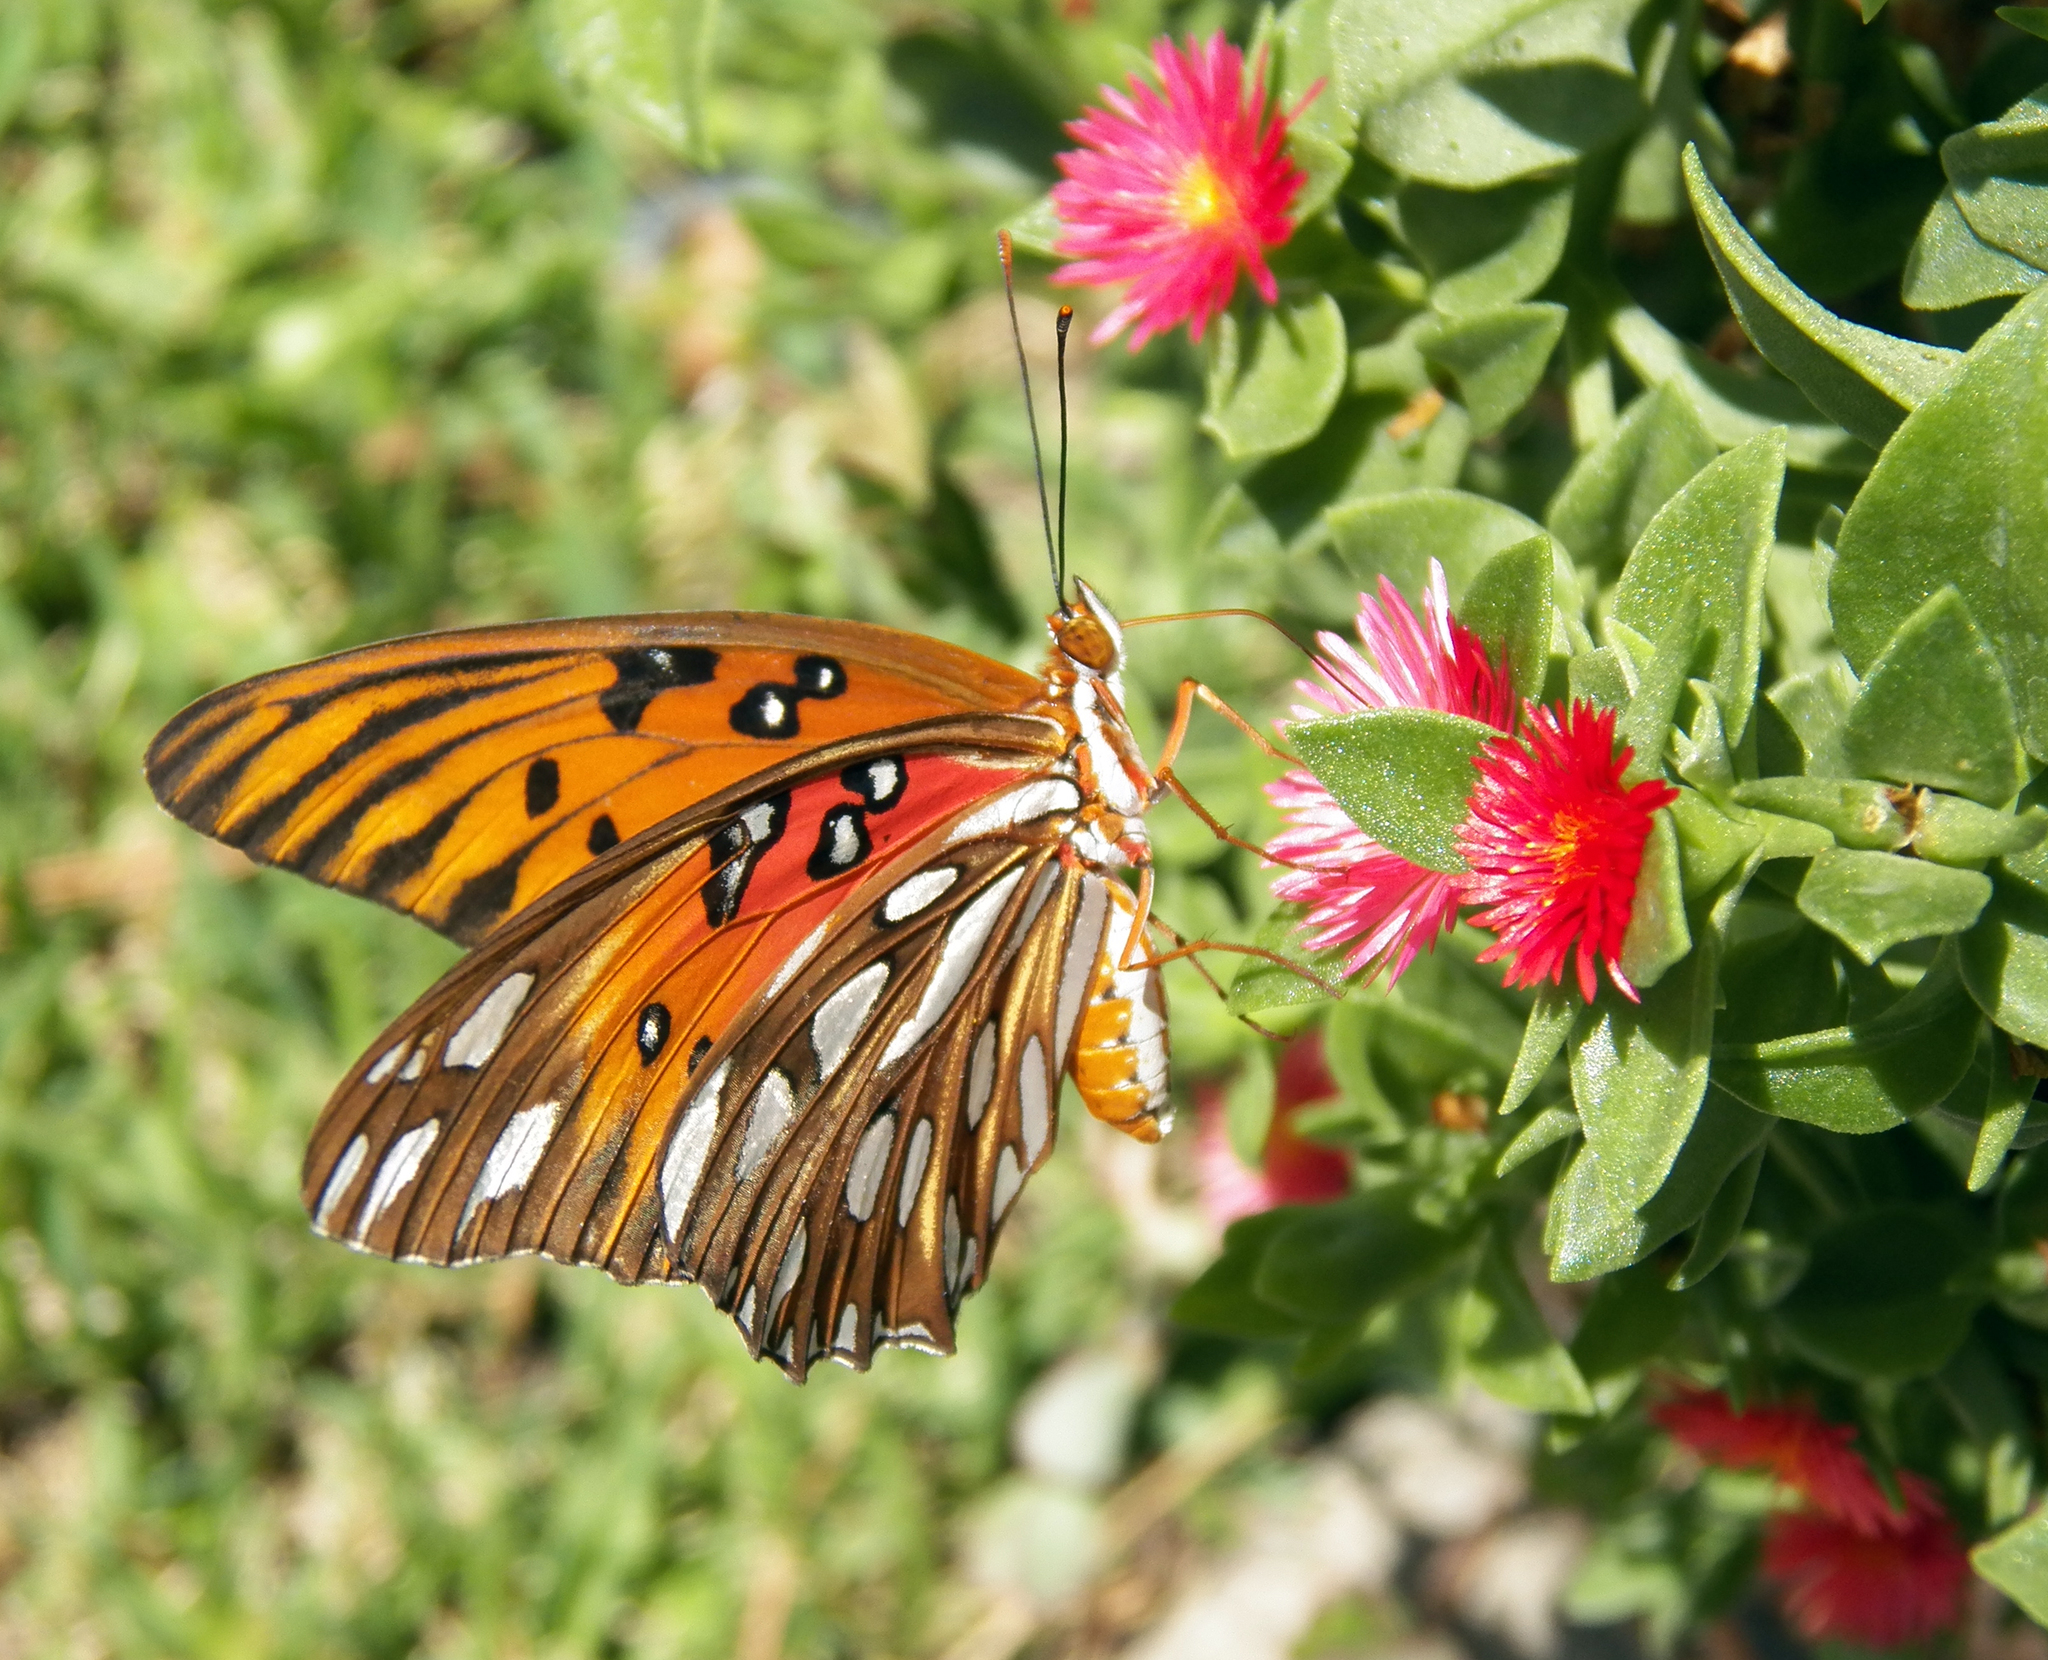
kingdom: Animalia
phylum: Arthropoda
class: Insecta
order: Lepidoptera
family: Nymphalidae
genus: Dione
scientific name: Dione vanillae
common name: Gulf fritillary
